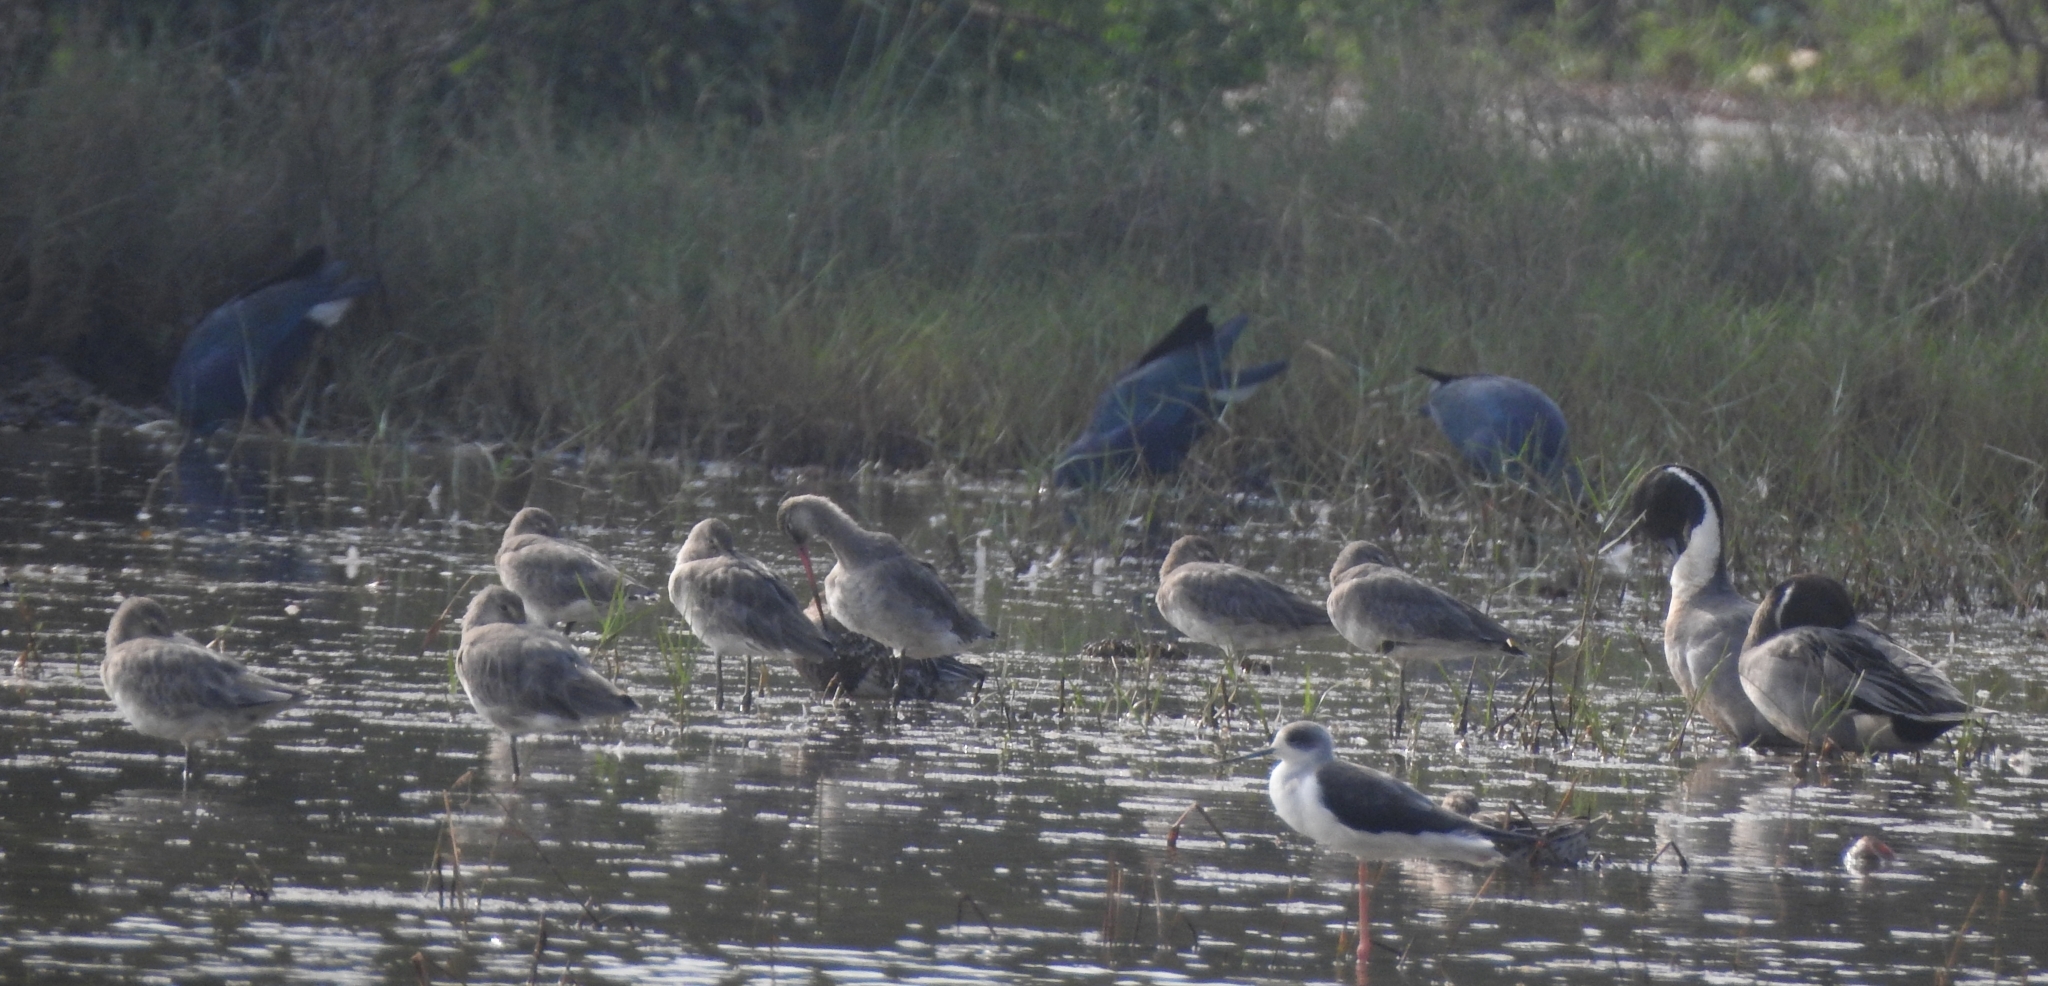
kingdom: Animalia
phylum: Chordata
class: Aves
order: Gruiformes
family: Rallidae
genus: Porphyrio
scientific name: Porphyrio porphyrio
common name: Purple swamphen
